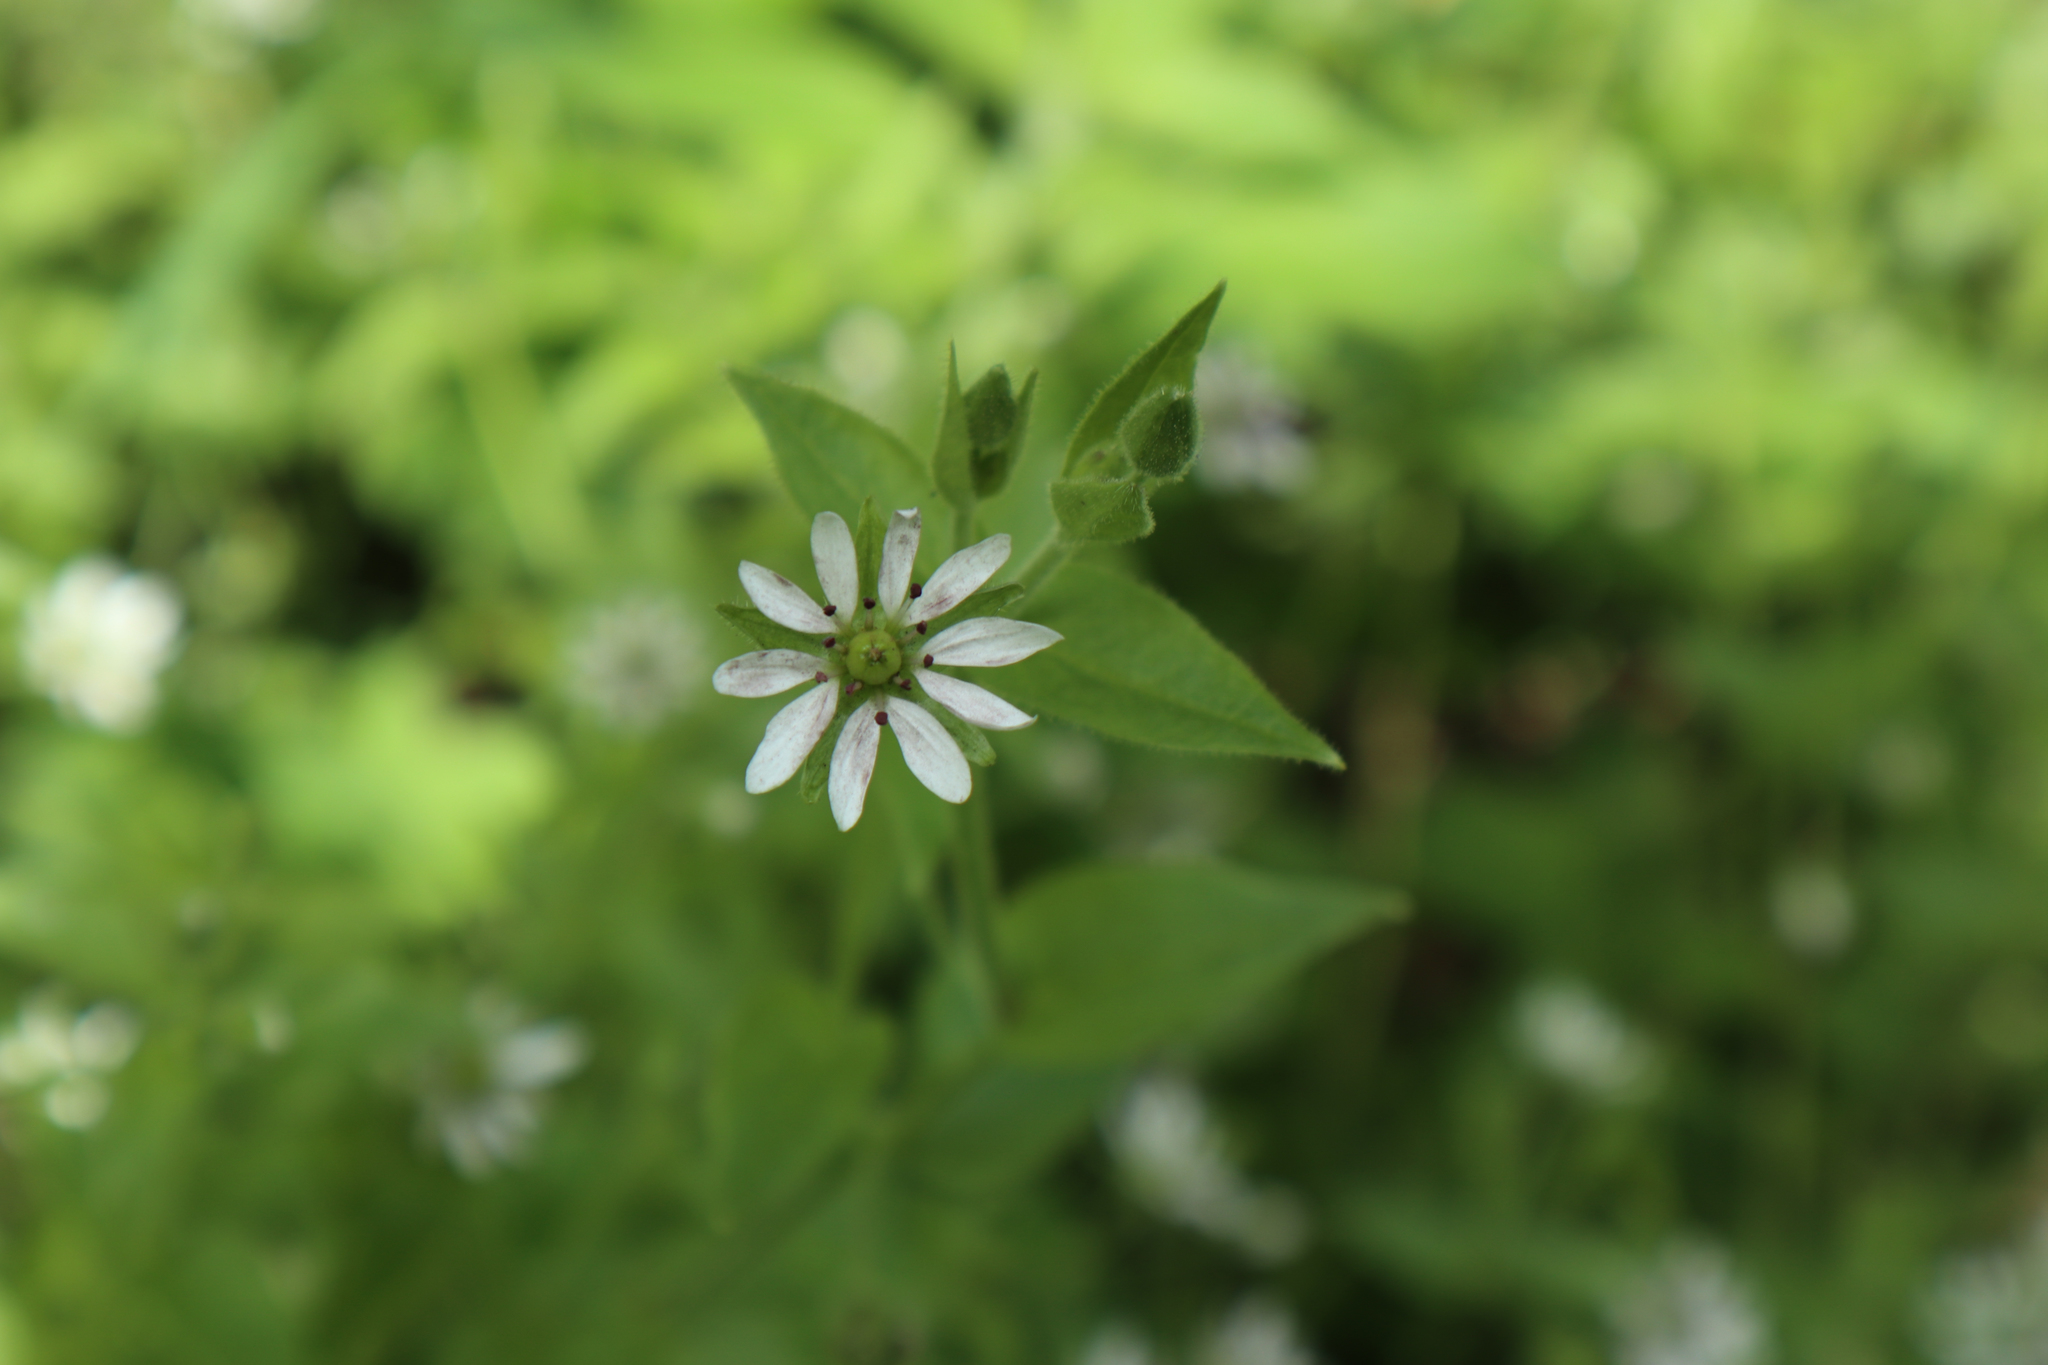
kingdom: Plantae
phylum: Tracheophyta
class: Magnoliopsida
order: Caryophyllales
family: Caryophyllaceae
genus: Stellaria
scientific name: Stellaria aquatica
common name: Water chickweed
